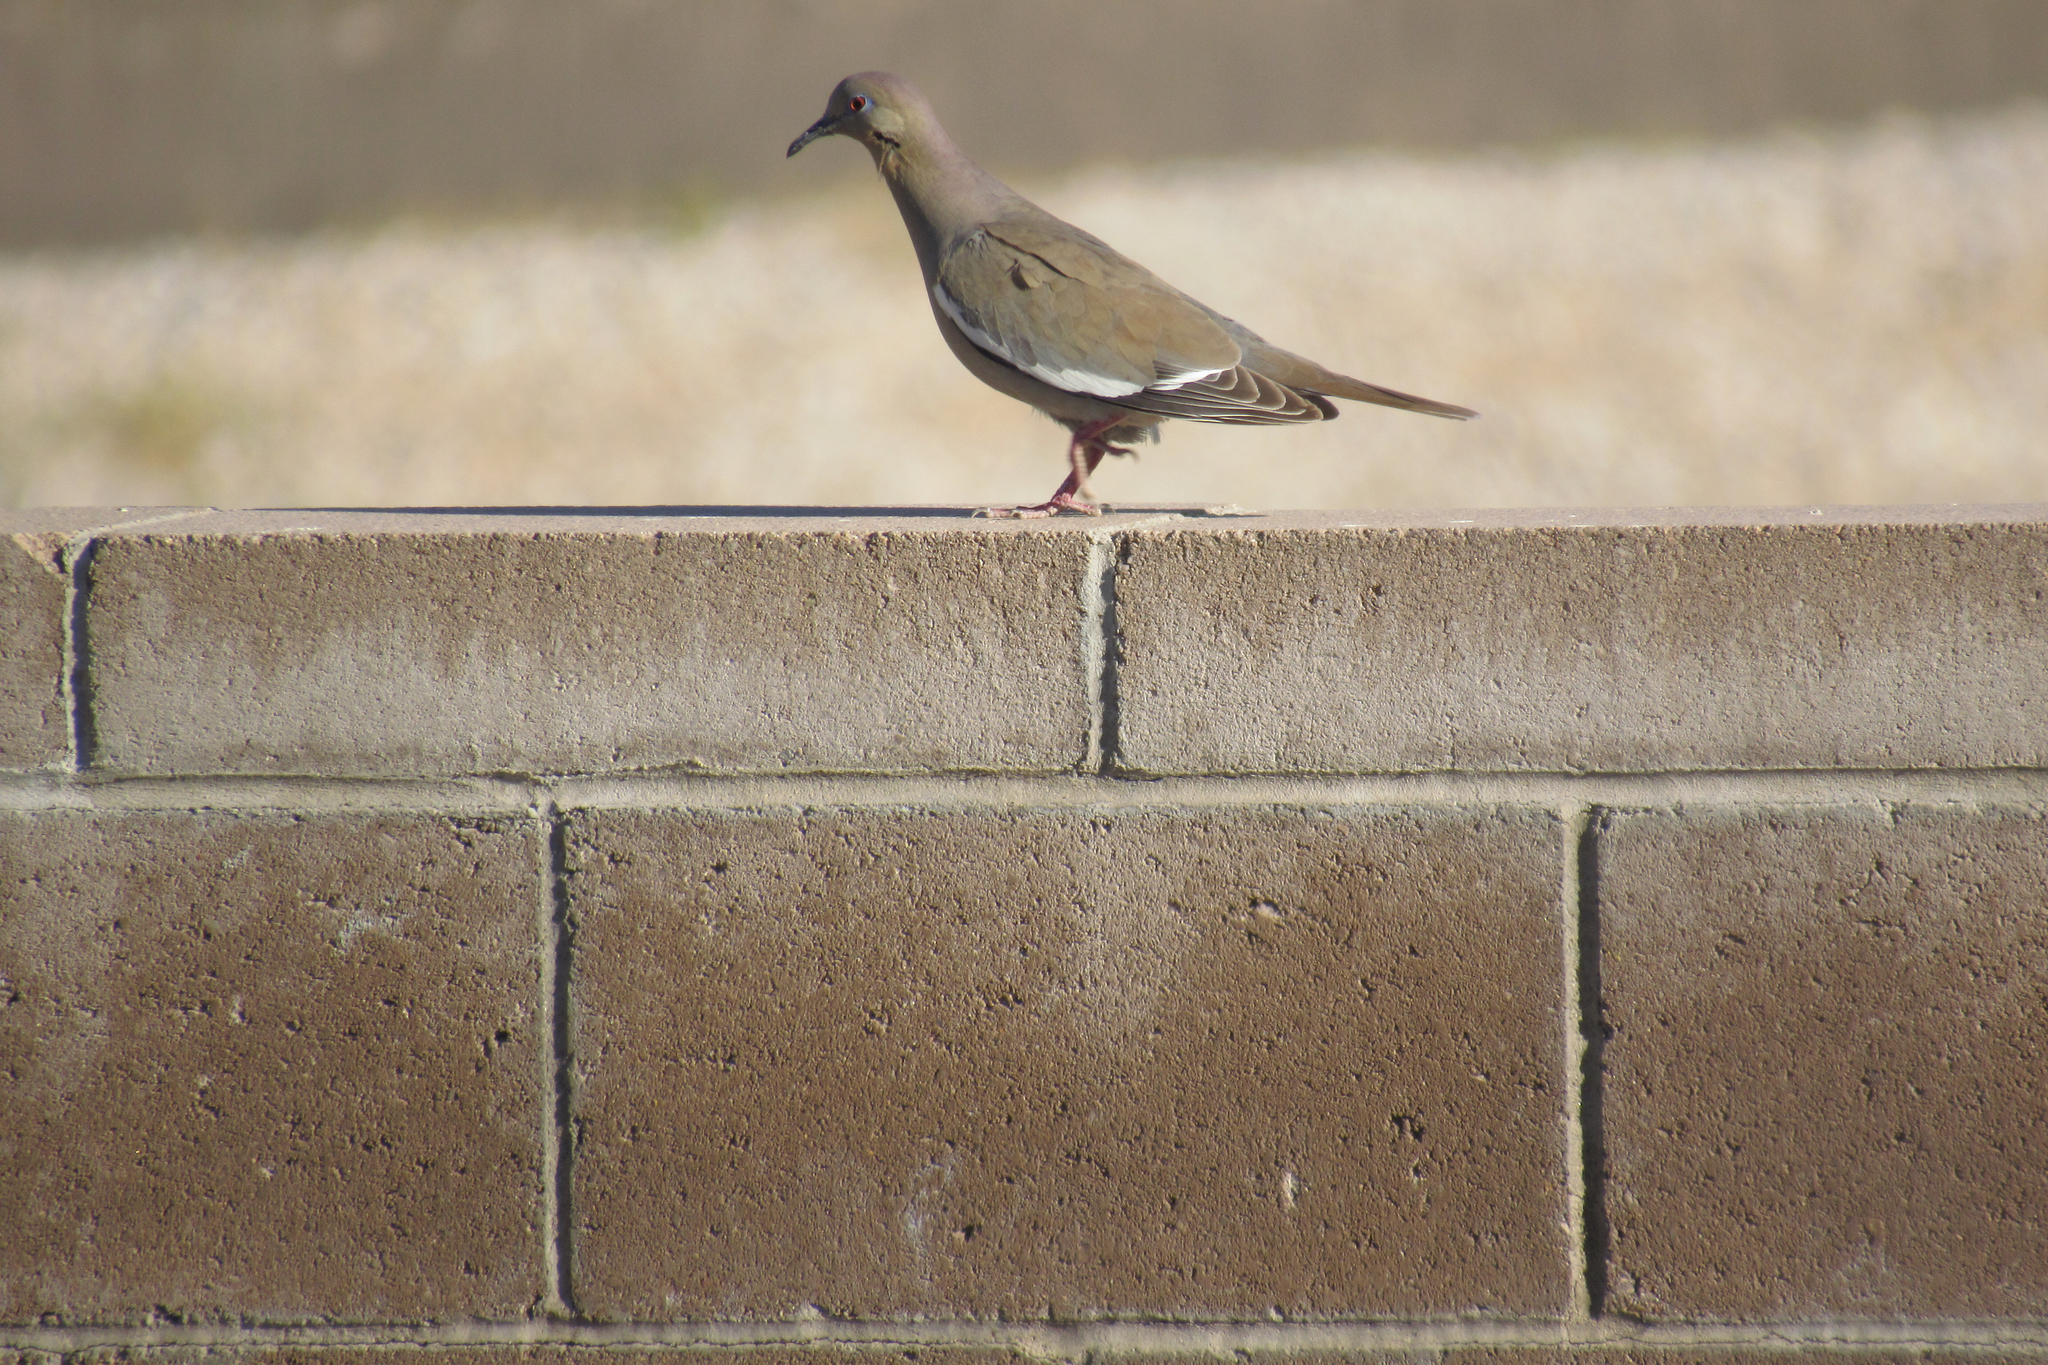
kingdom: Animalia
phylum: Chordata
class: Aves
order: Columbiformes
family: Columbidae
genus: Zenaida
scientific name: Zenaida asiatica
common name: White-winged dove
